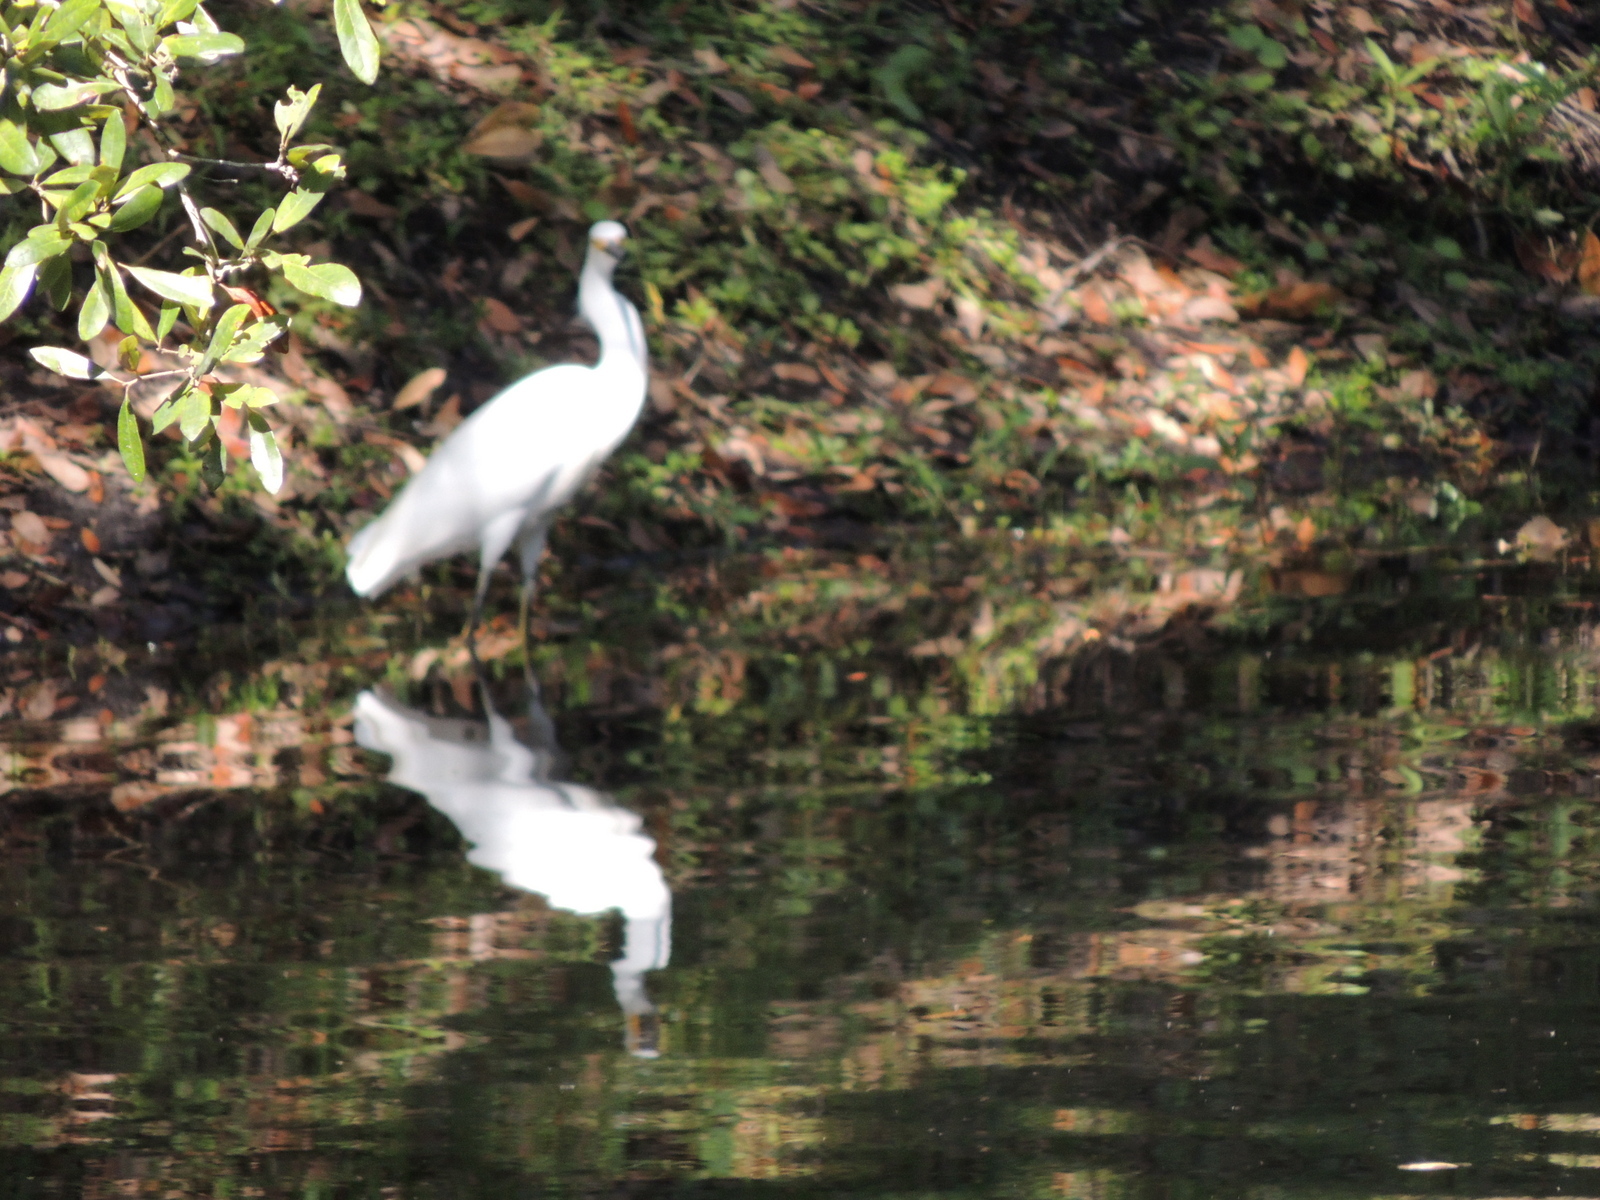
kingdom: Animalia
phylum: Chordata
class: Aves
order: Pelecaniformes
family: Ardeidae
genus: Egretta
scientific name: Egretta thula
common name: Snowy egret
